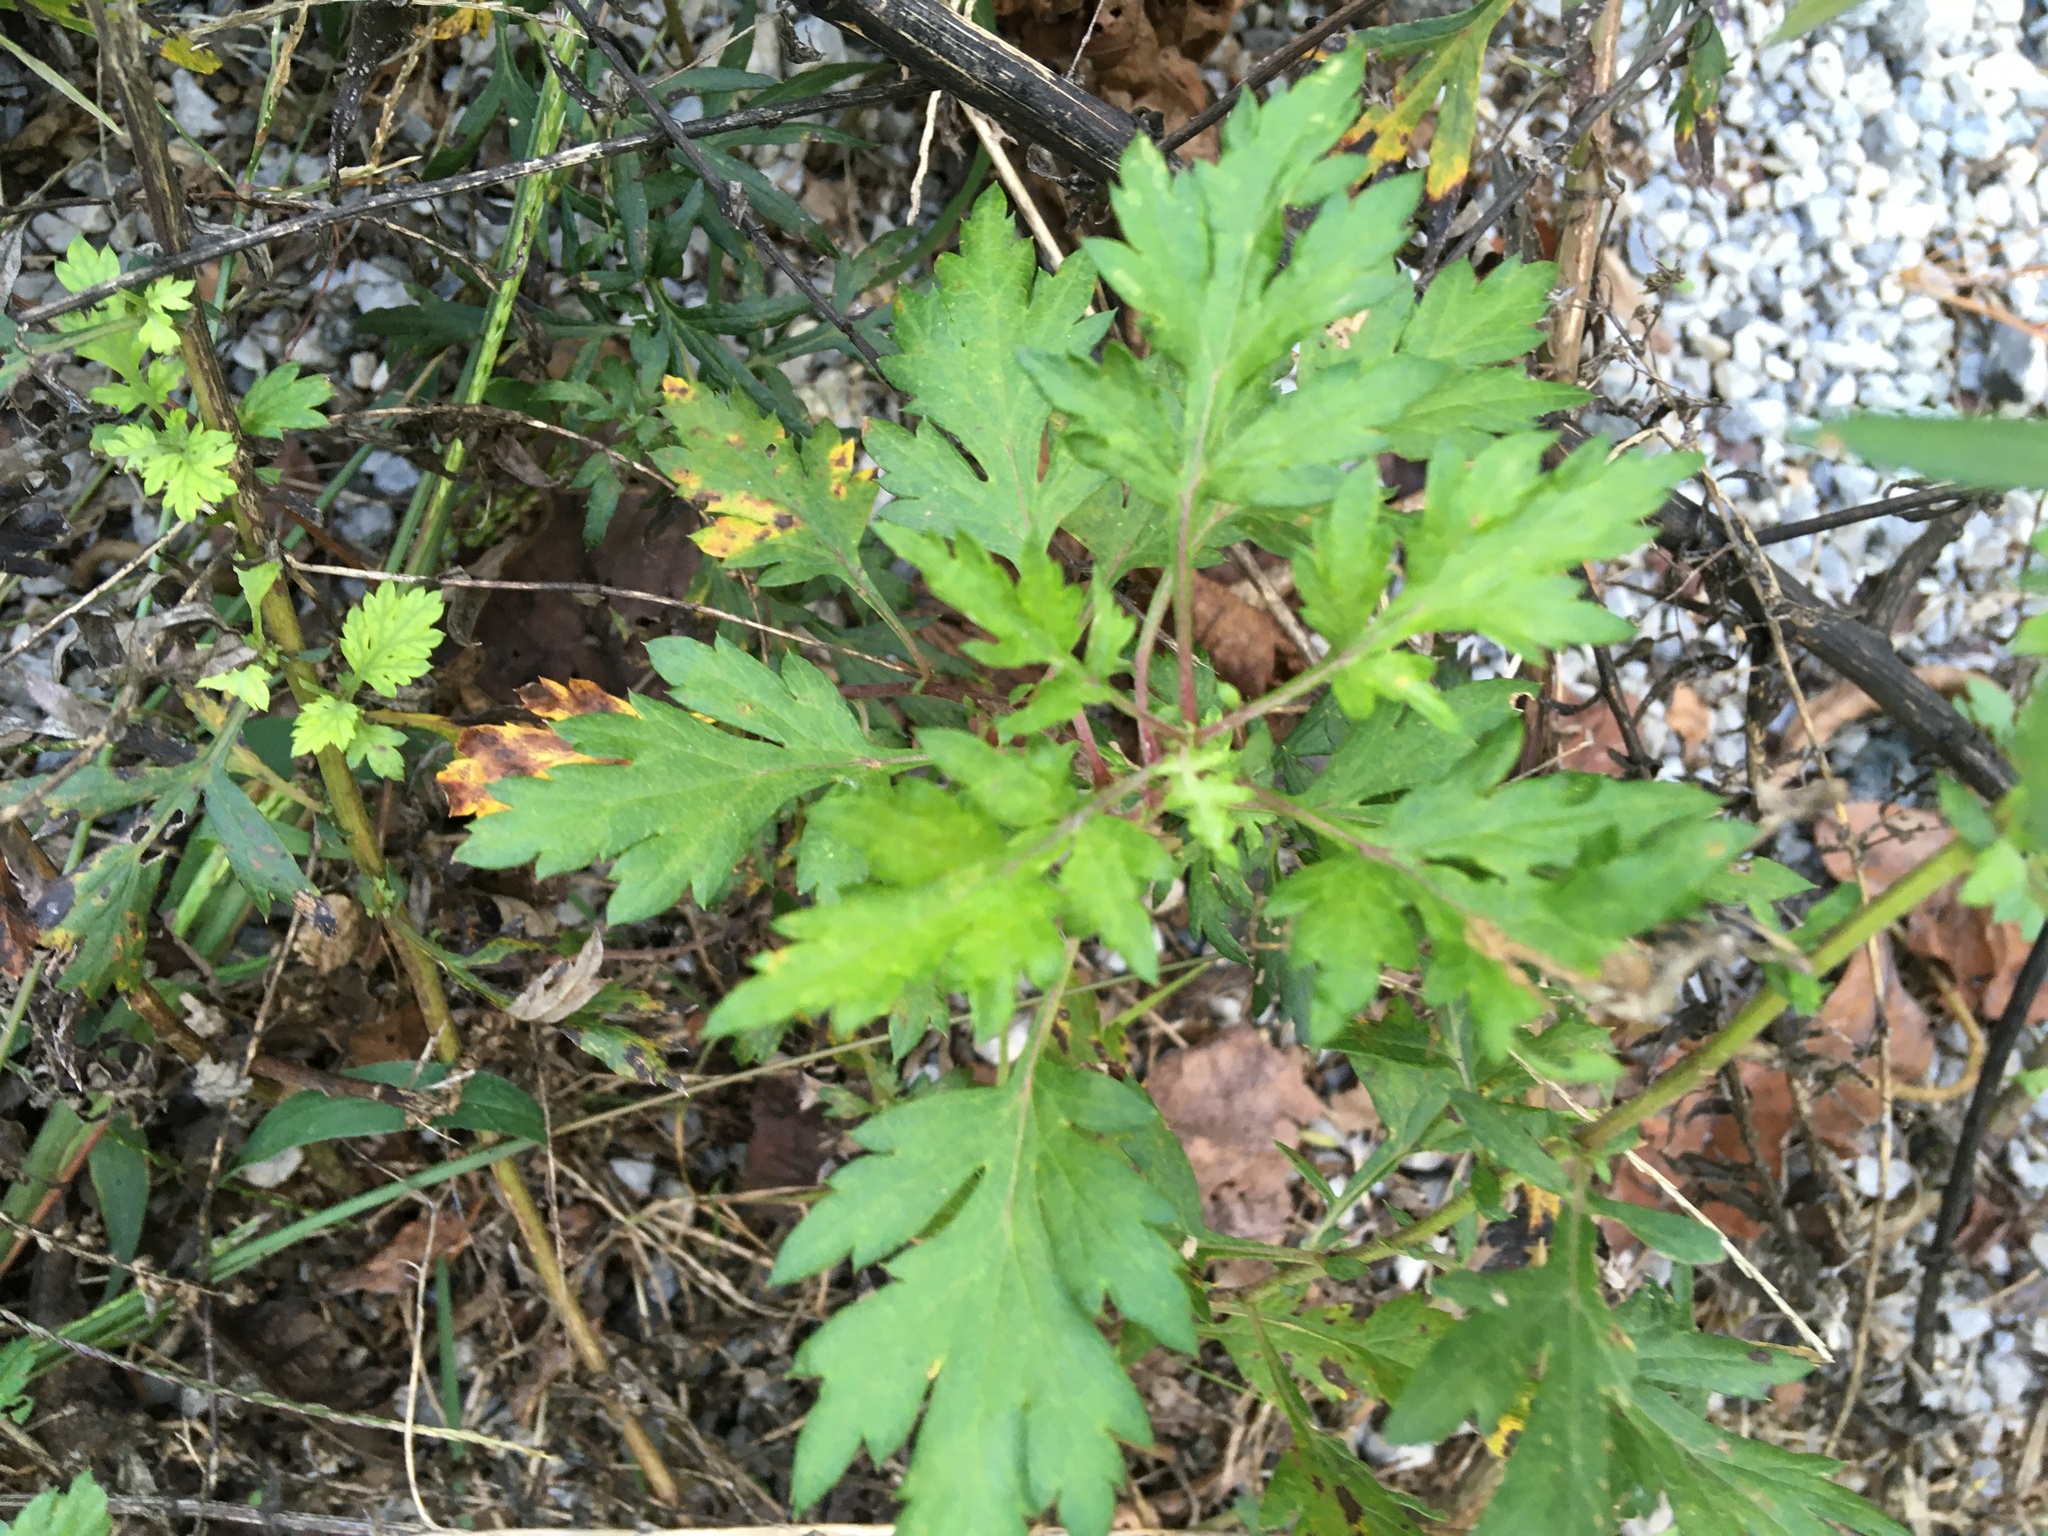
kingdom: Plantae
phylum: Tracheophyta
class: Magnoliopsida
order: Asterales
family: Asteraceae
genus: Artemisia
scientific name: Artemisia vulgaris
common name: Mugwort
